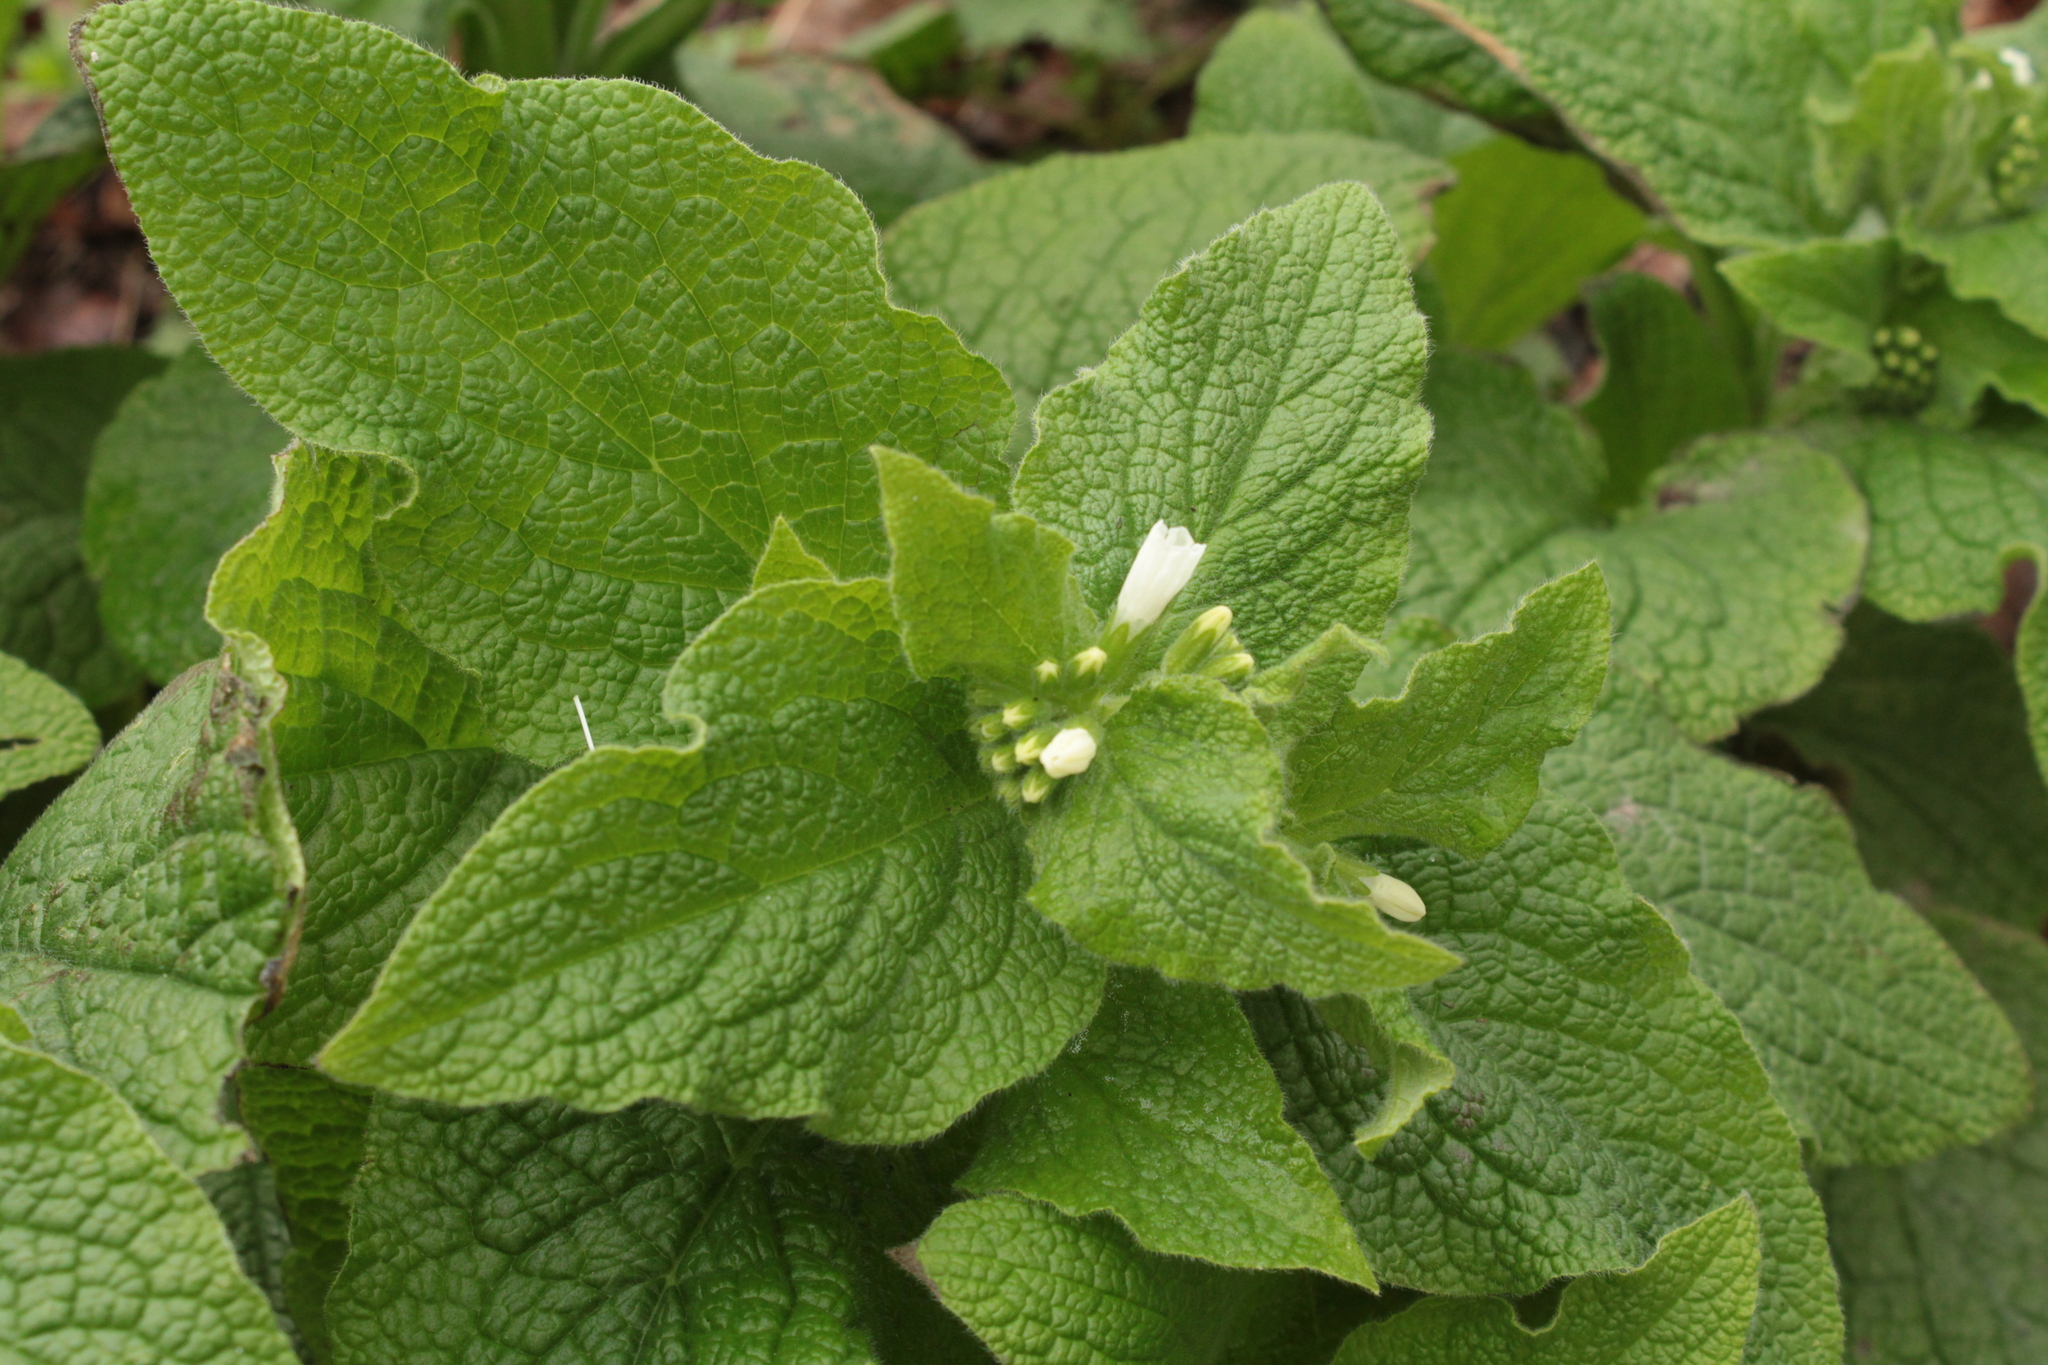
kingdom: Plantae
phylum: Tracheophyta
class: Magnoliopsida
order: Boraginales
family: Boraginaceae
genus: Symphytum
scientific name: Symphytum orientale
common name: White comfrey
